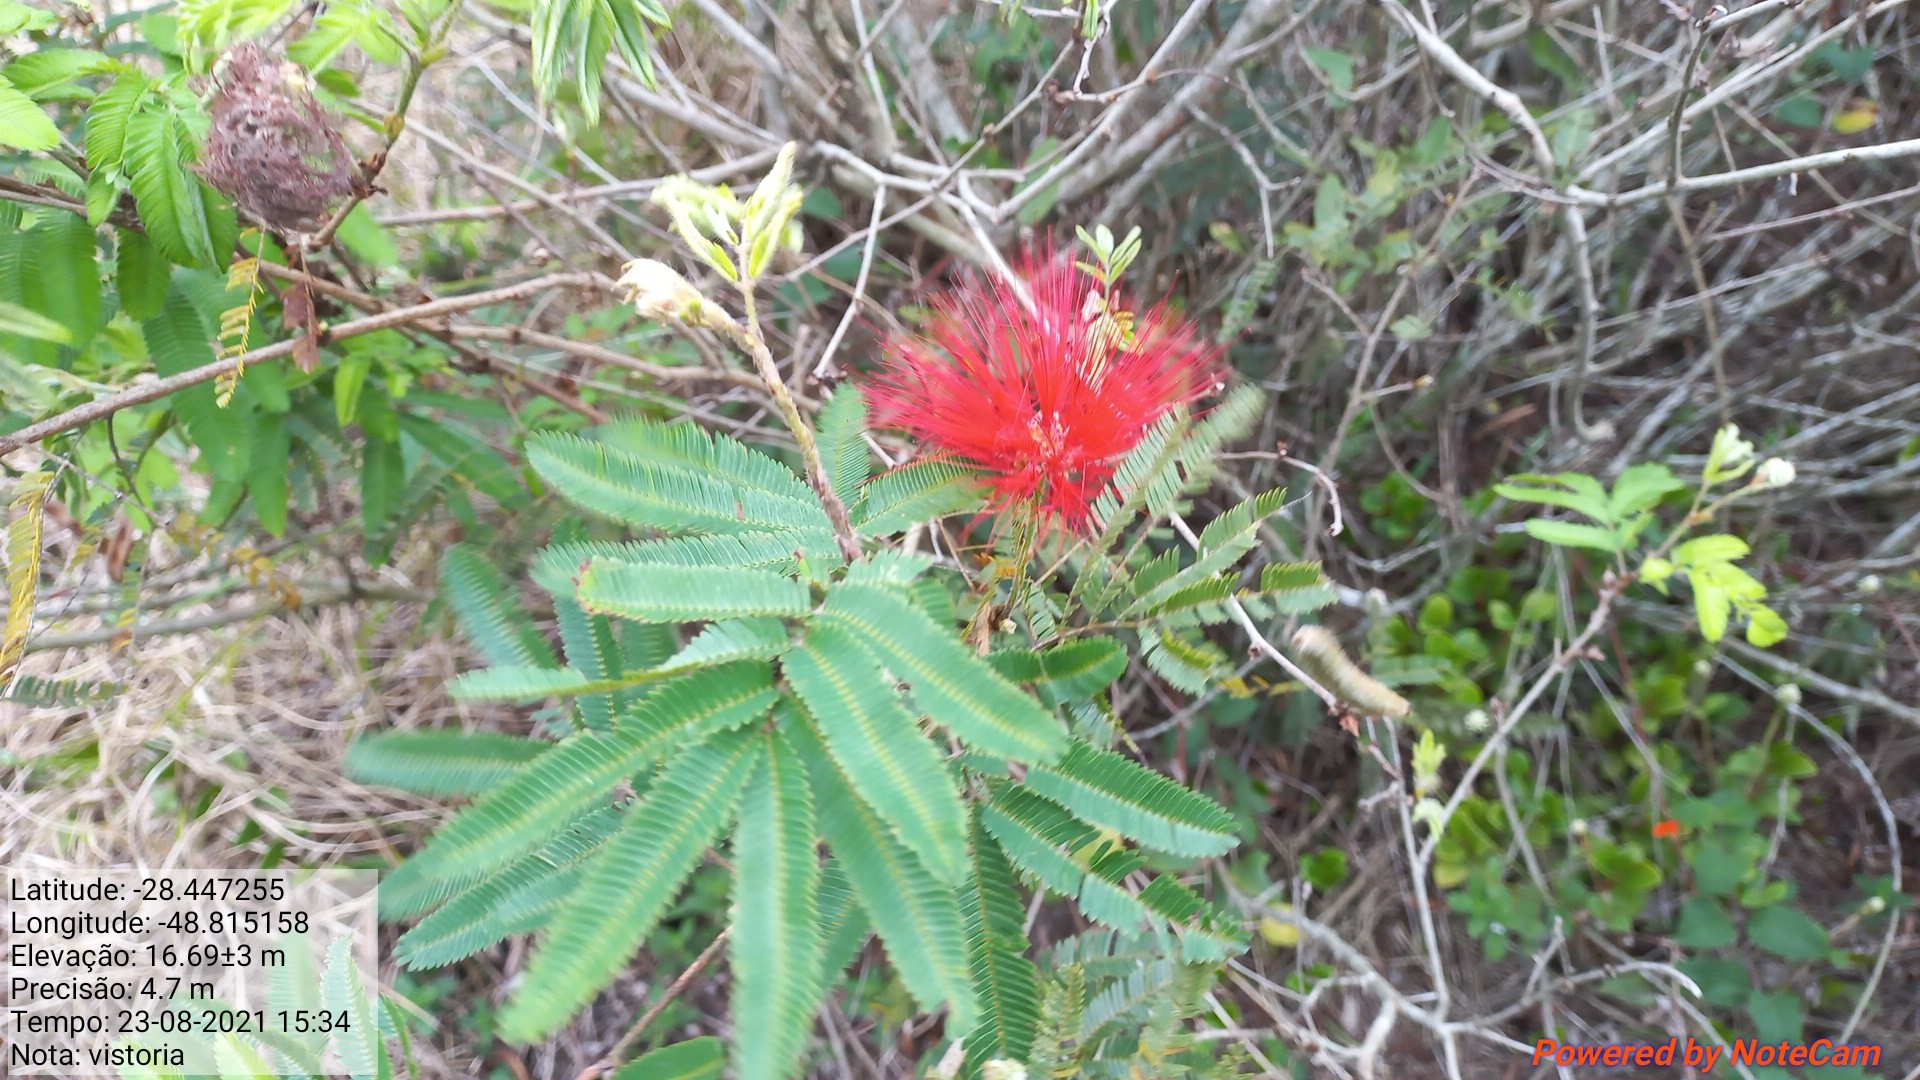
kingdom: Plantae
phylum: Tracheophyta
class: Magnoliopsida
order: Fabales
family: Fabaceae
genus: Calliandra
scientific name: Calliandra tweediei
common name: Mexican flamebush
